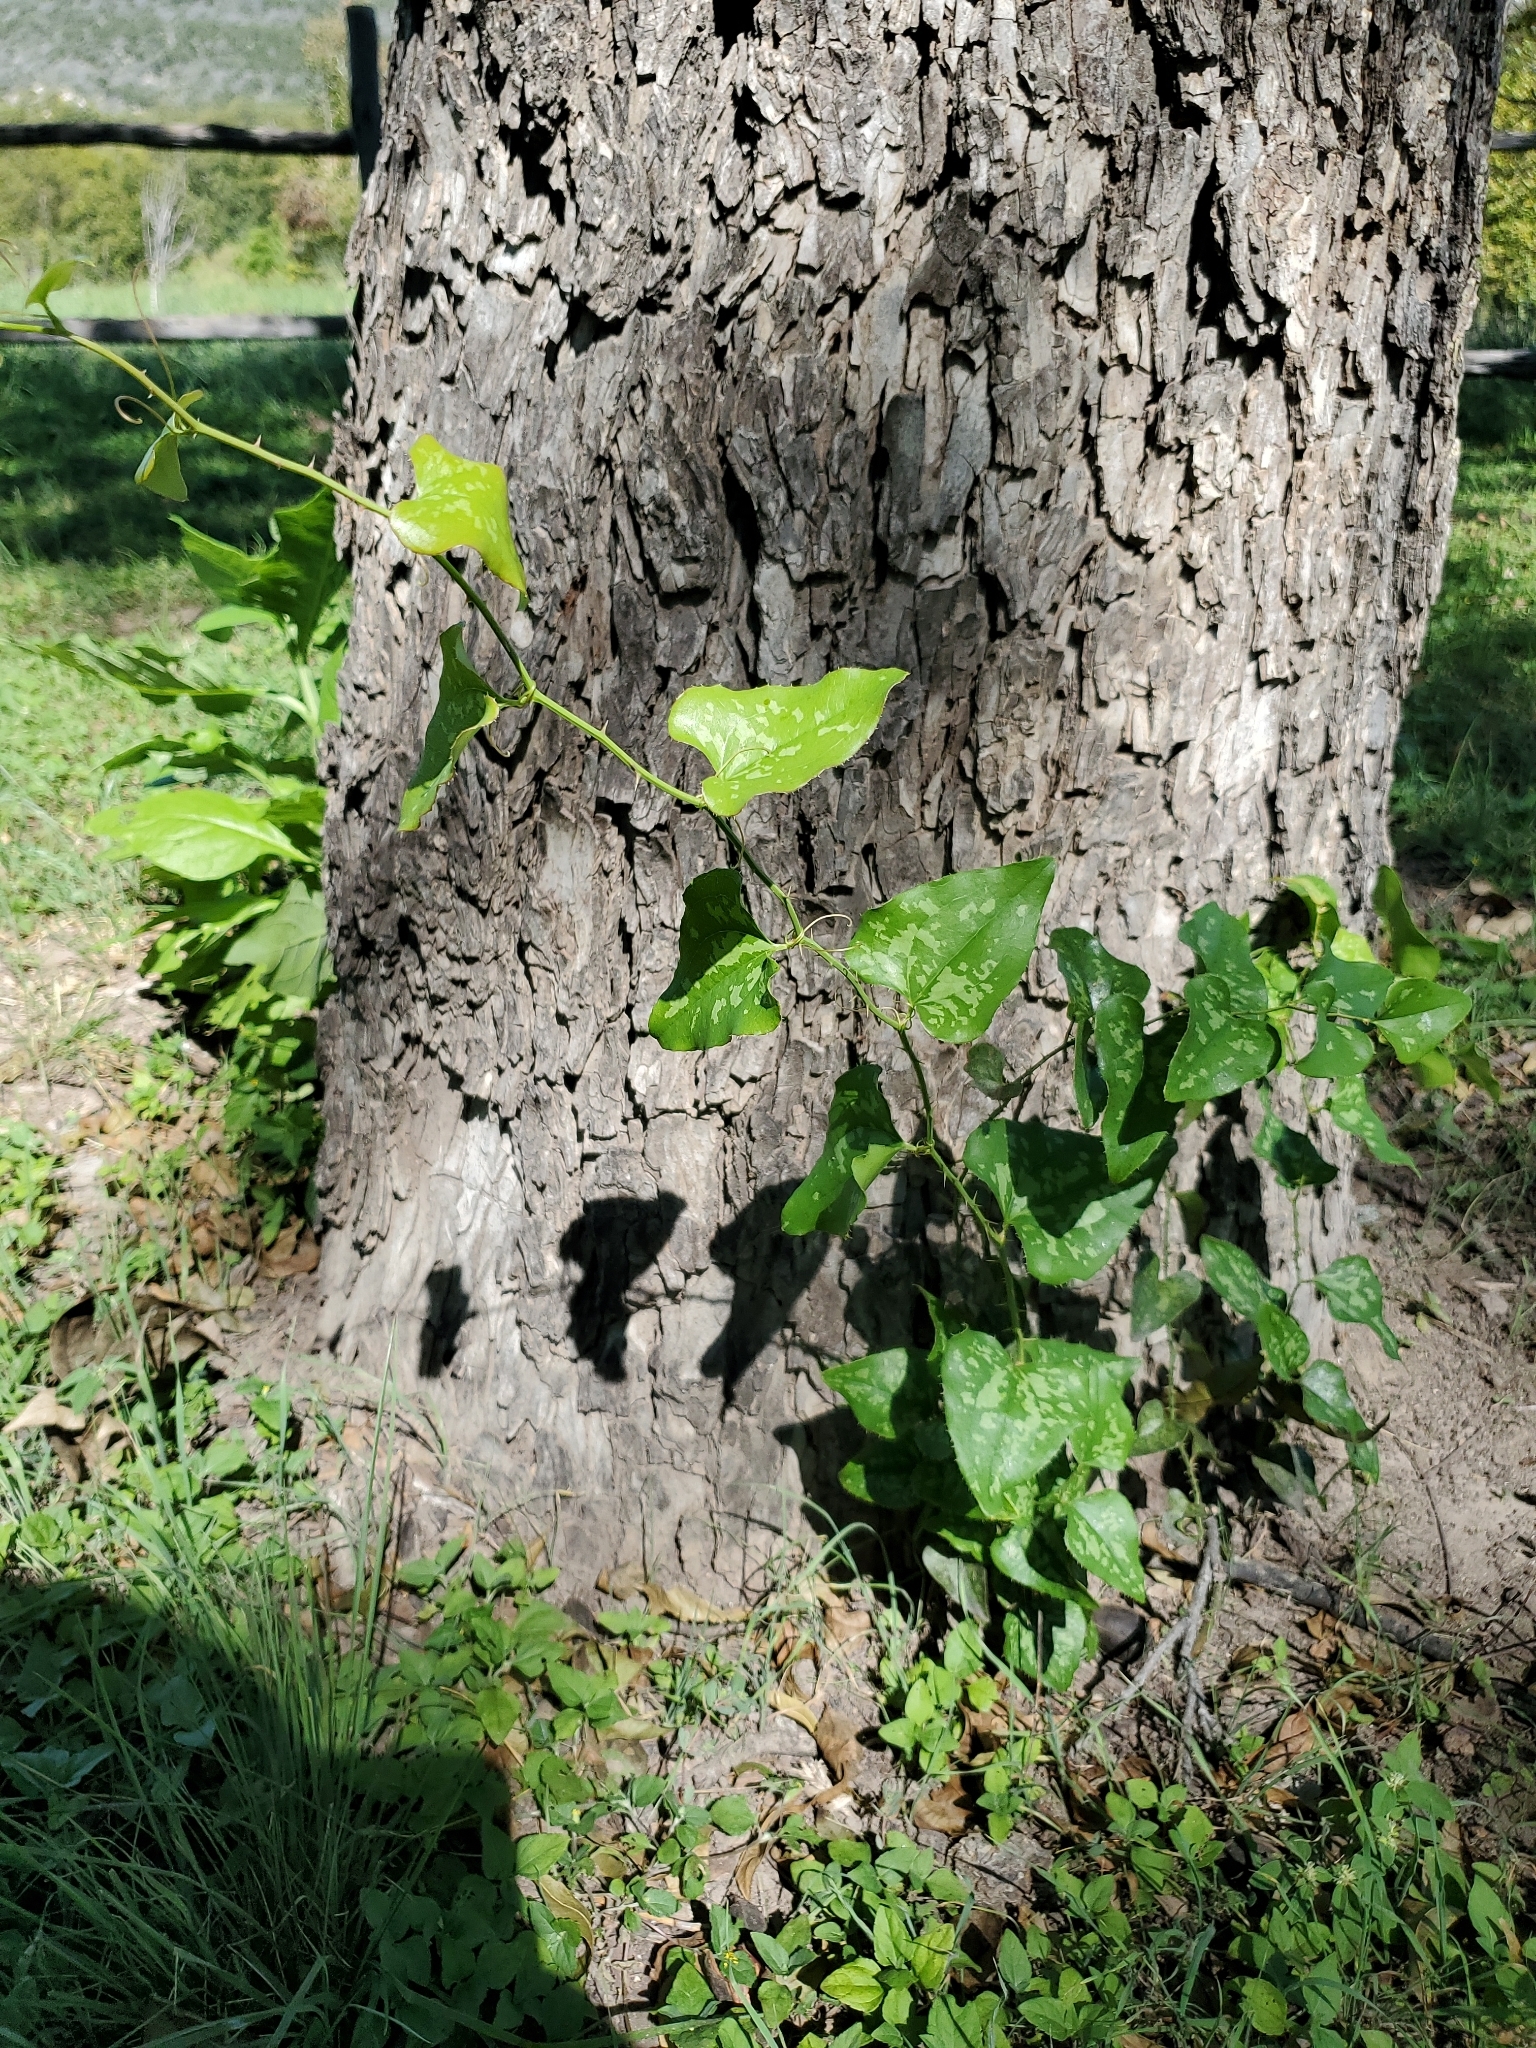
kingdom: Plantae
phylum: Tracheophyta
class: Liliopsida
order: Liliales
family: Smilacaceae
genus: Smilax
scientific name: Smilax bona-nox
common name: Catbrier
